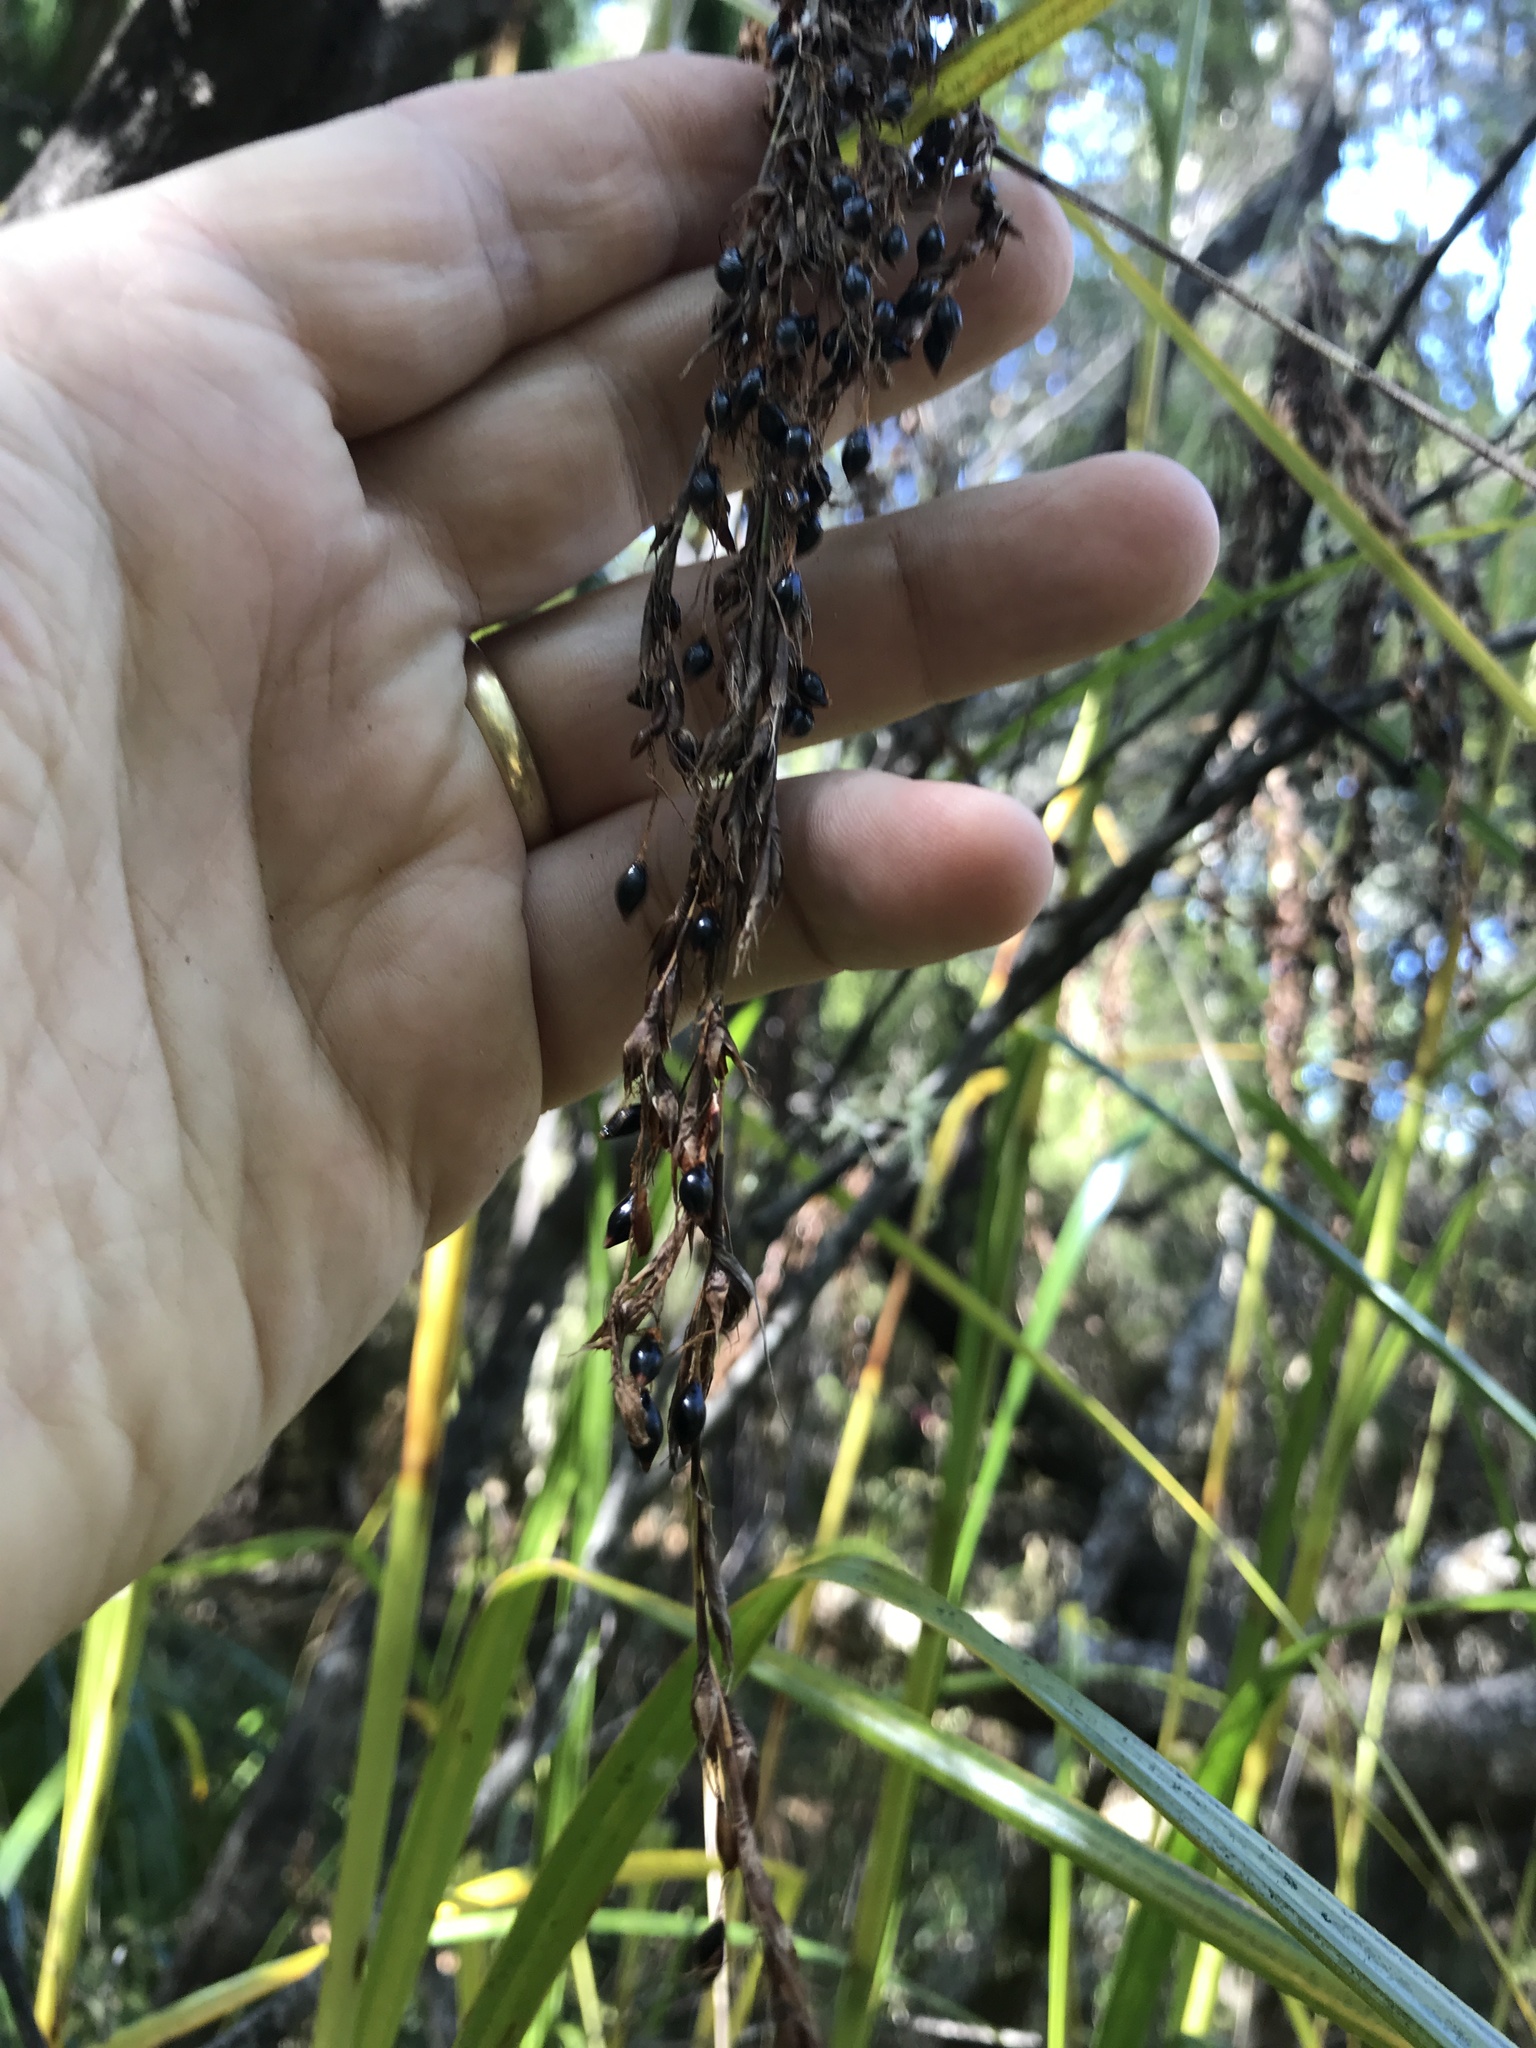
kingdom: Plantae
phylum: Tracheophyta
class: Liliopsida
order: Poales
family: Cyperaceae
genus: Gahnia
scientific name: Gahnia xanthocarpa
